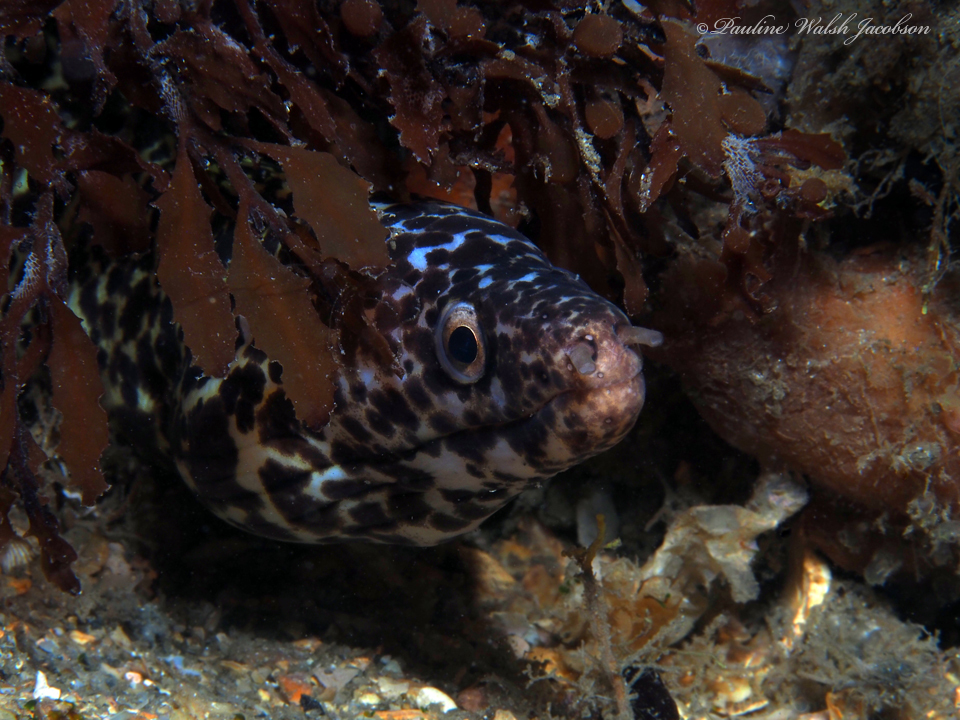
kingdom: Animalia
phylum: Chordata
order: Anguilliformes
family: Muraenidae
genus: Gymnothorax
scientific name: Gymnothorax moringa
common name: Spotted moray
